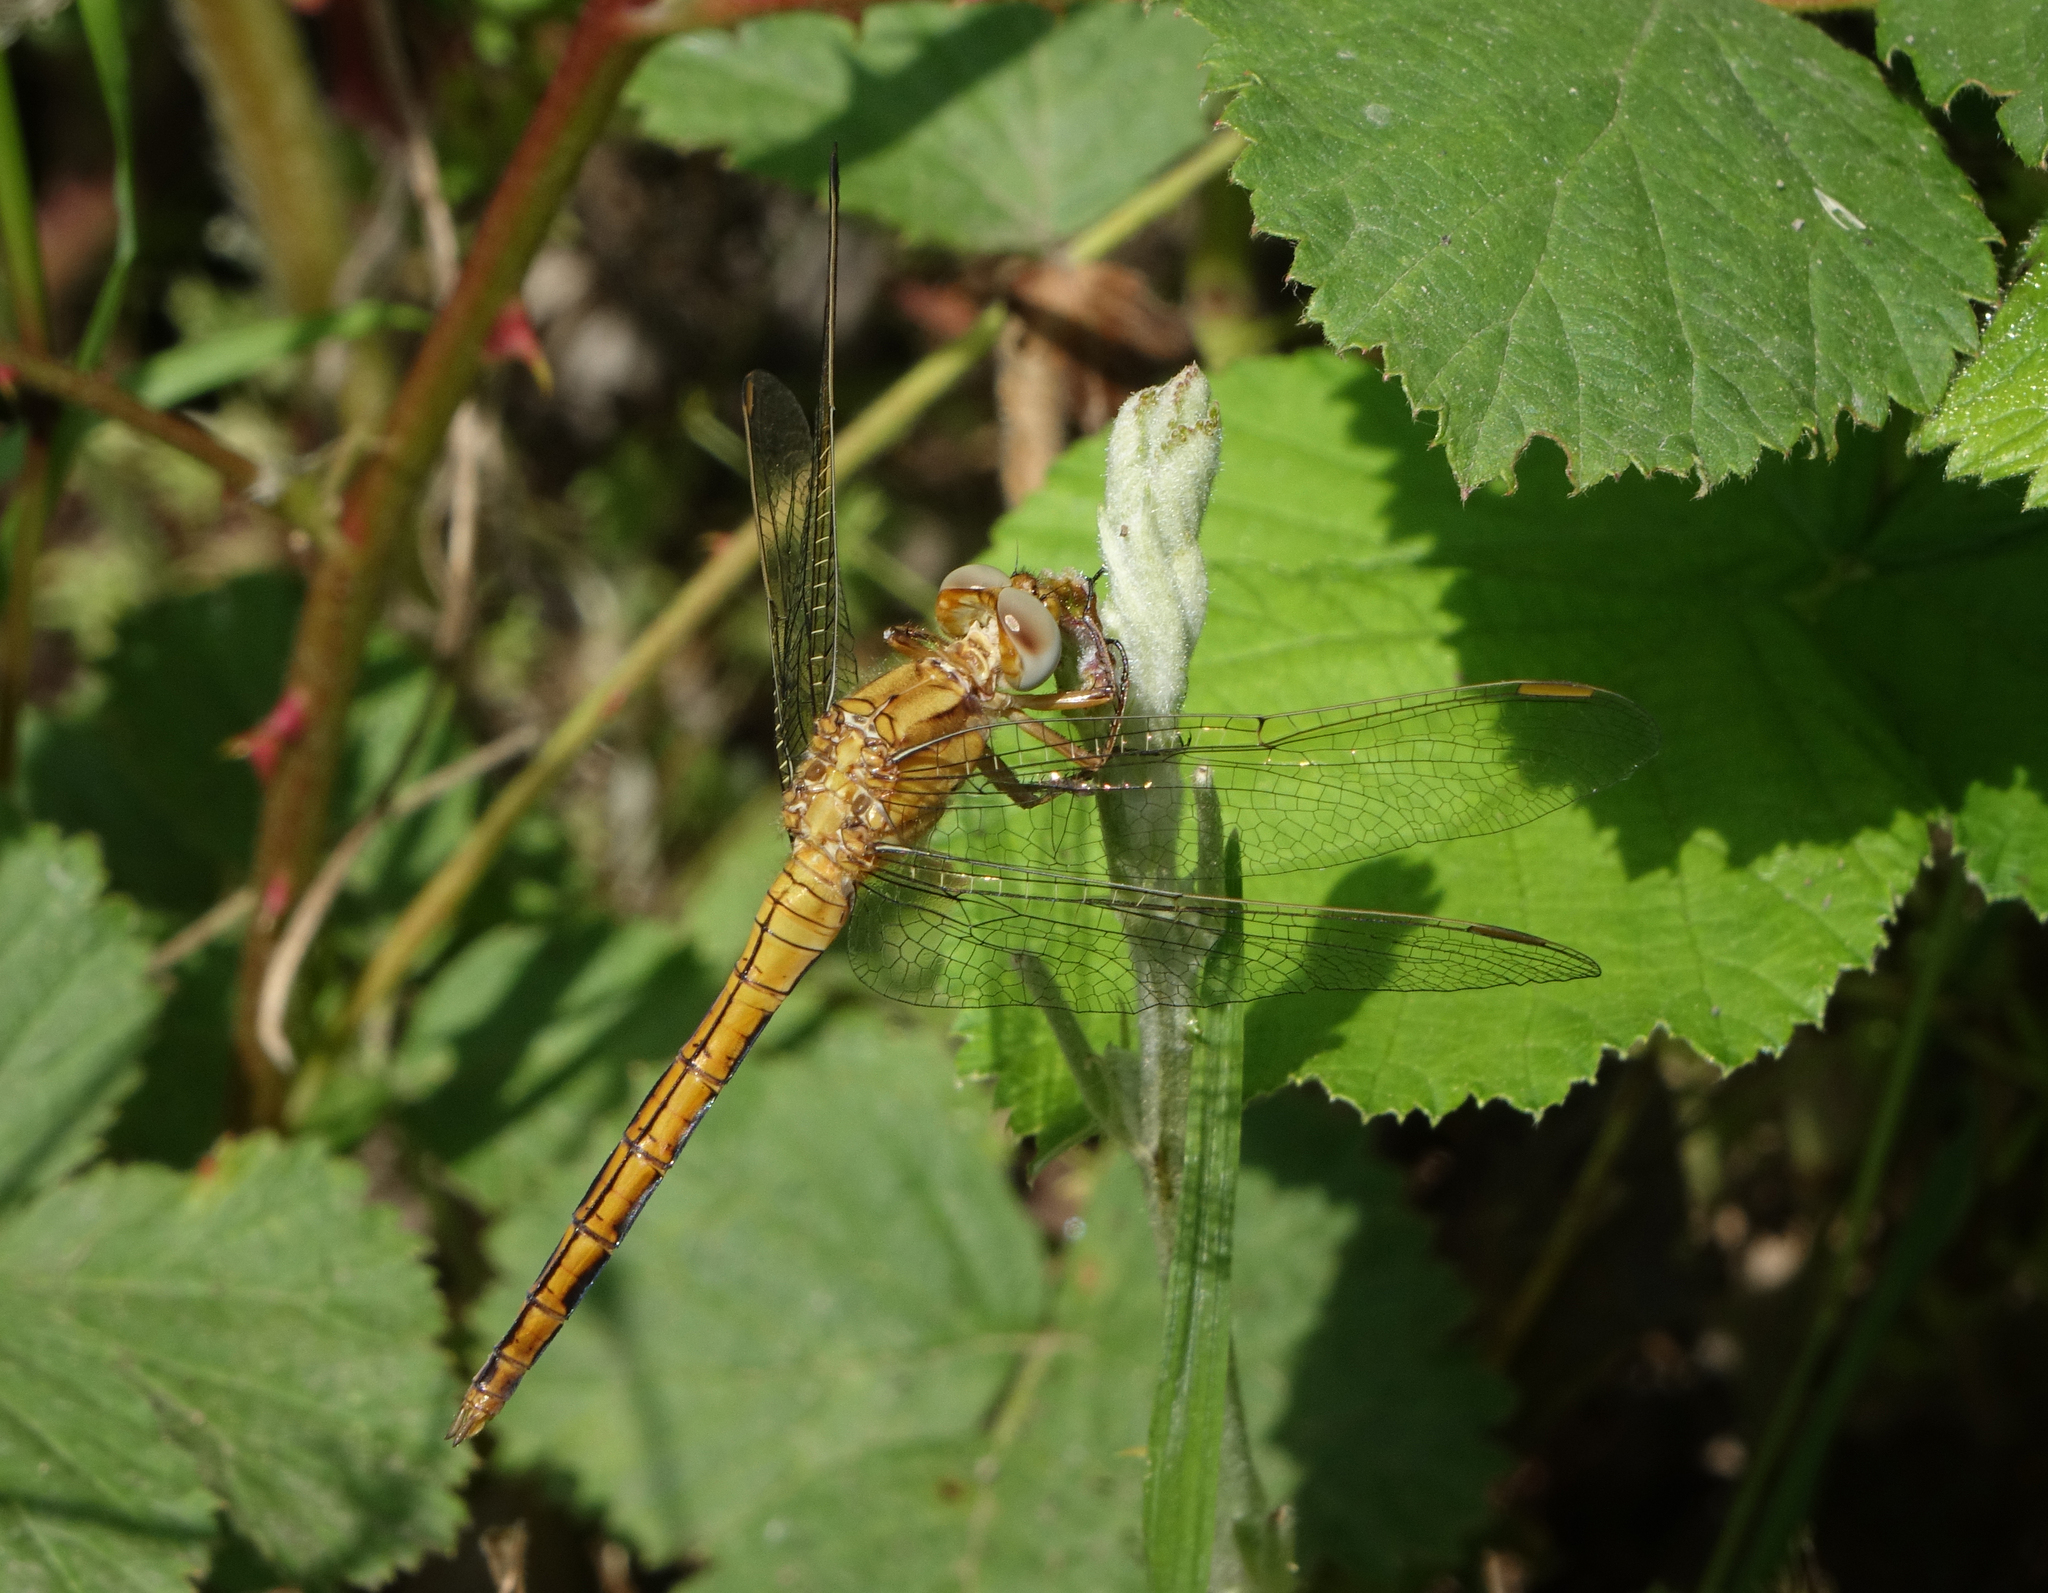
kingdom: Animalia
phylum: Arthropoda
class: Insecta
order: Odonata
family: Libellulidae
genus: Orthetrum
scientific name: Orthetrum coerulescens
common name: Keeled skimmer
